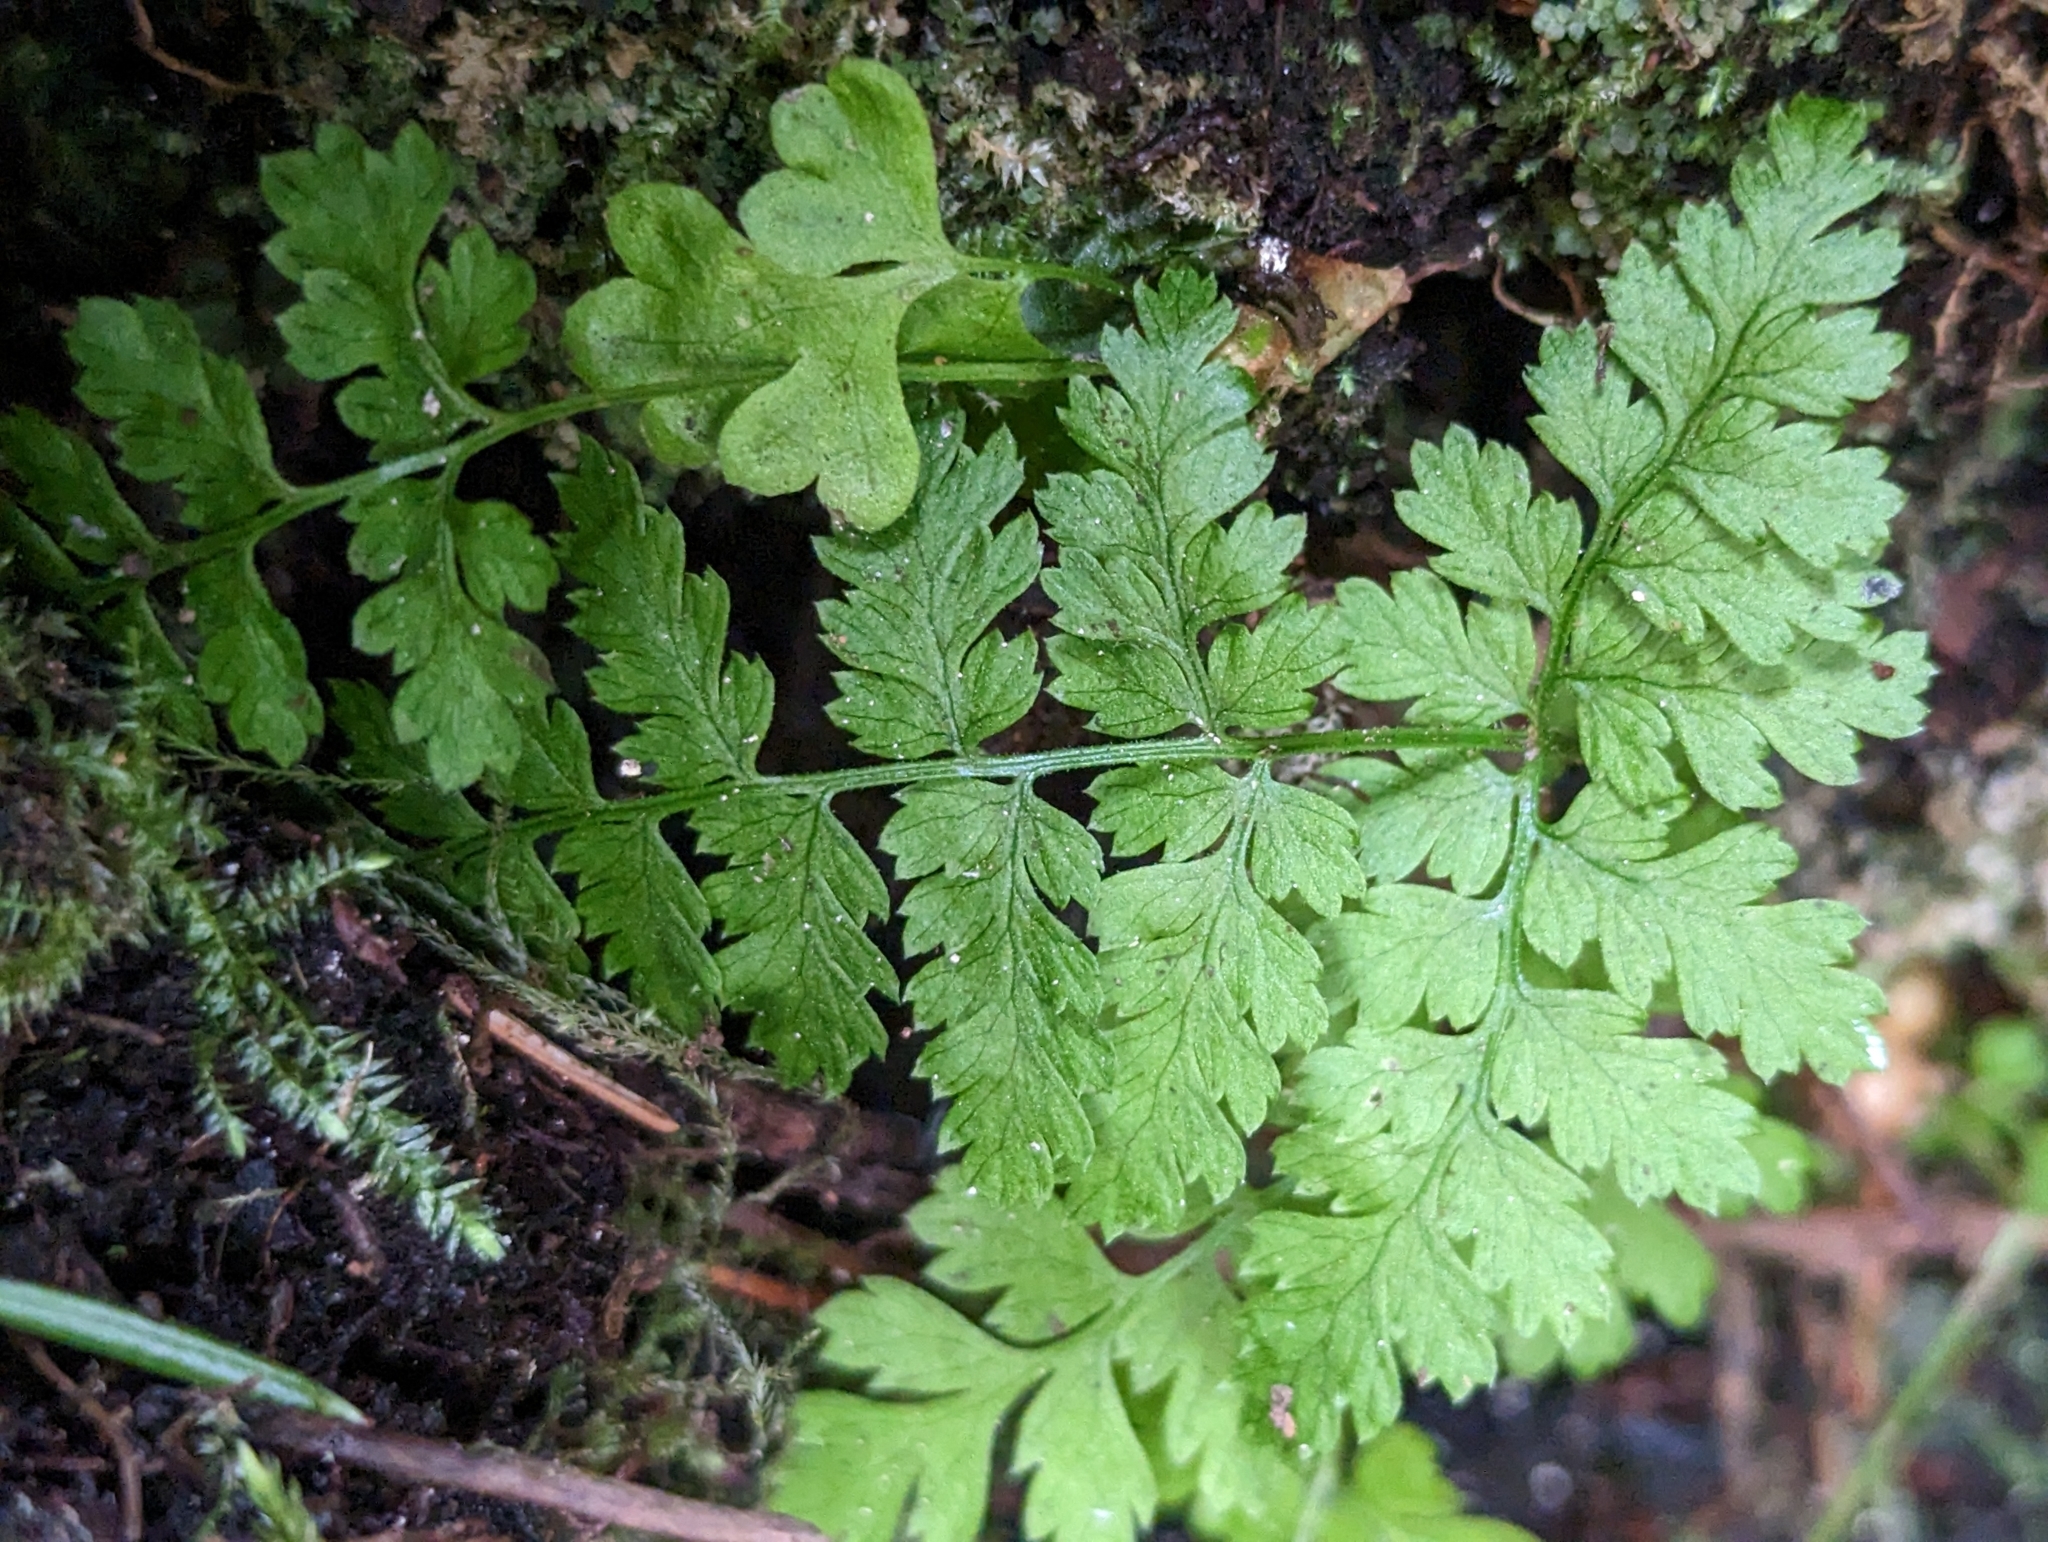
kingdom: Plantae
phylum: Tracheophyta
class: Polypodiopsida
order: Polypodiales
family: Dryopteridaceae
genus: Dryopteris
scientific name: Dryopteris expansa
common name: Northern buckler fern
